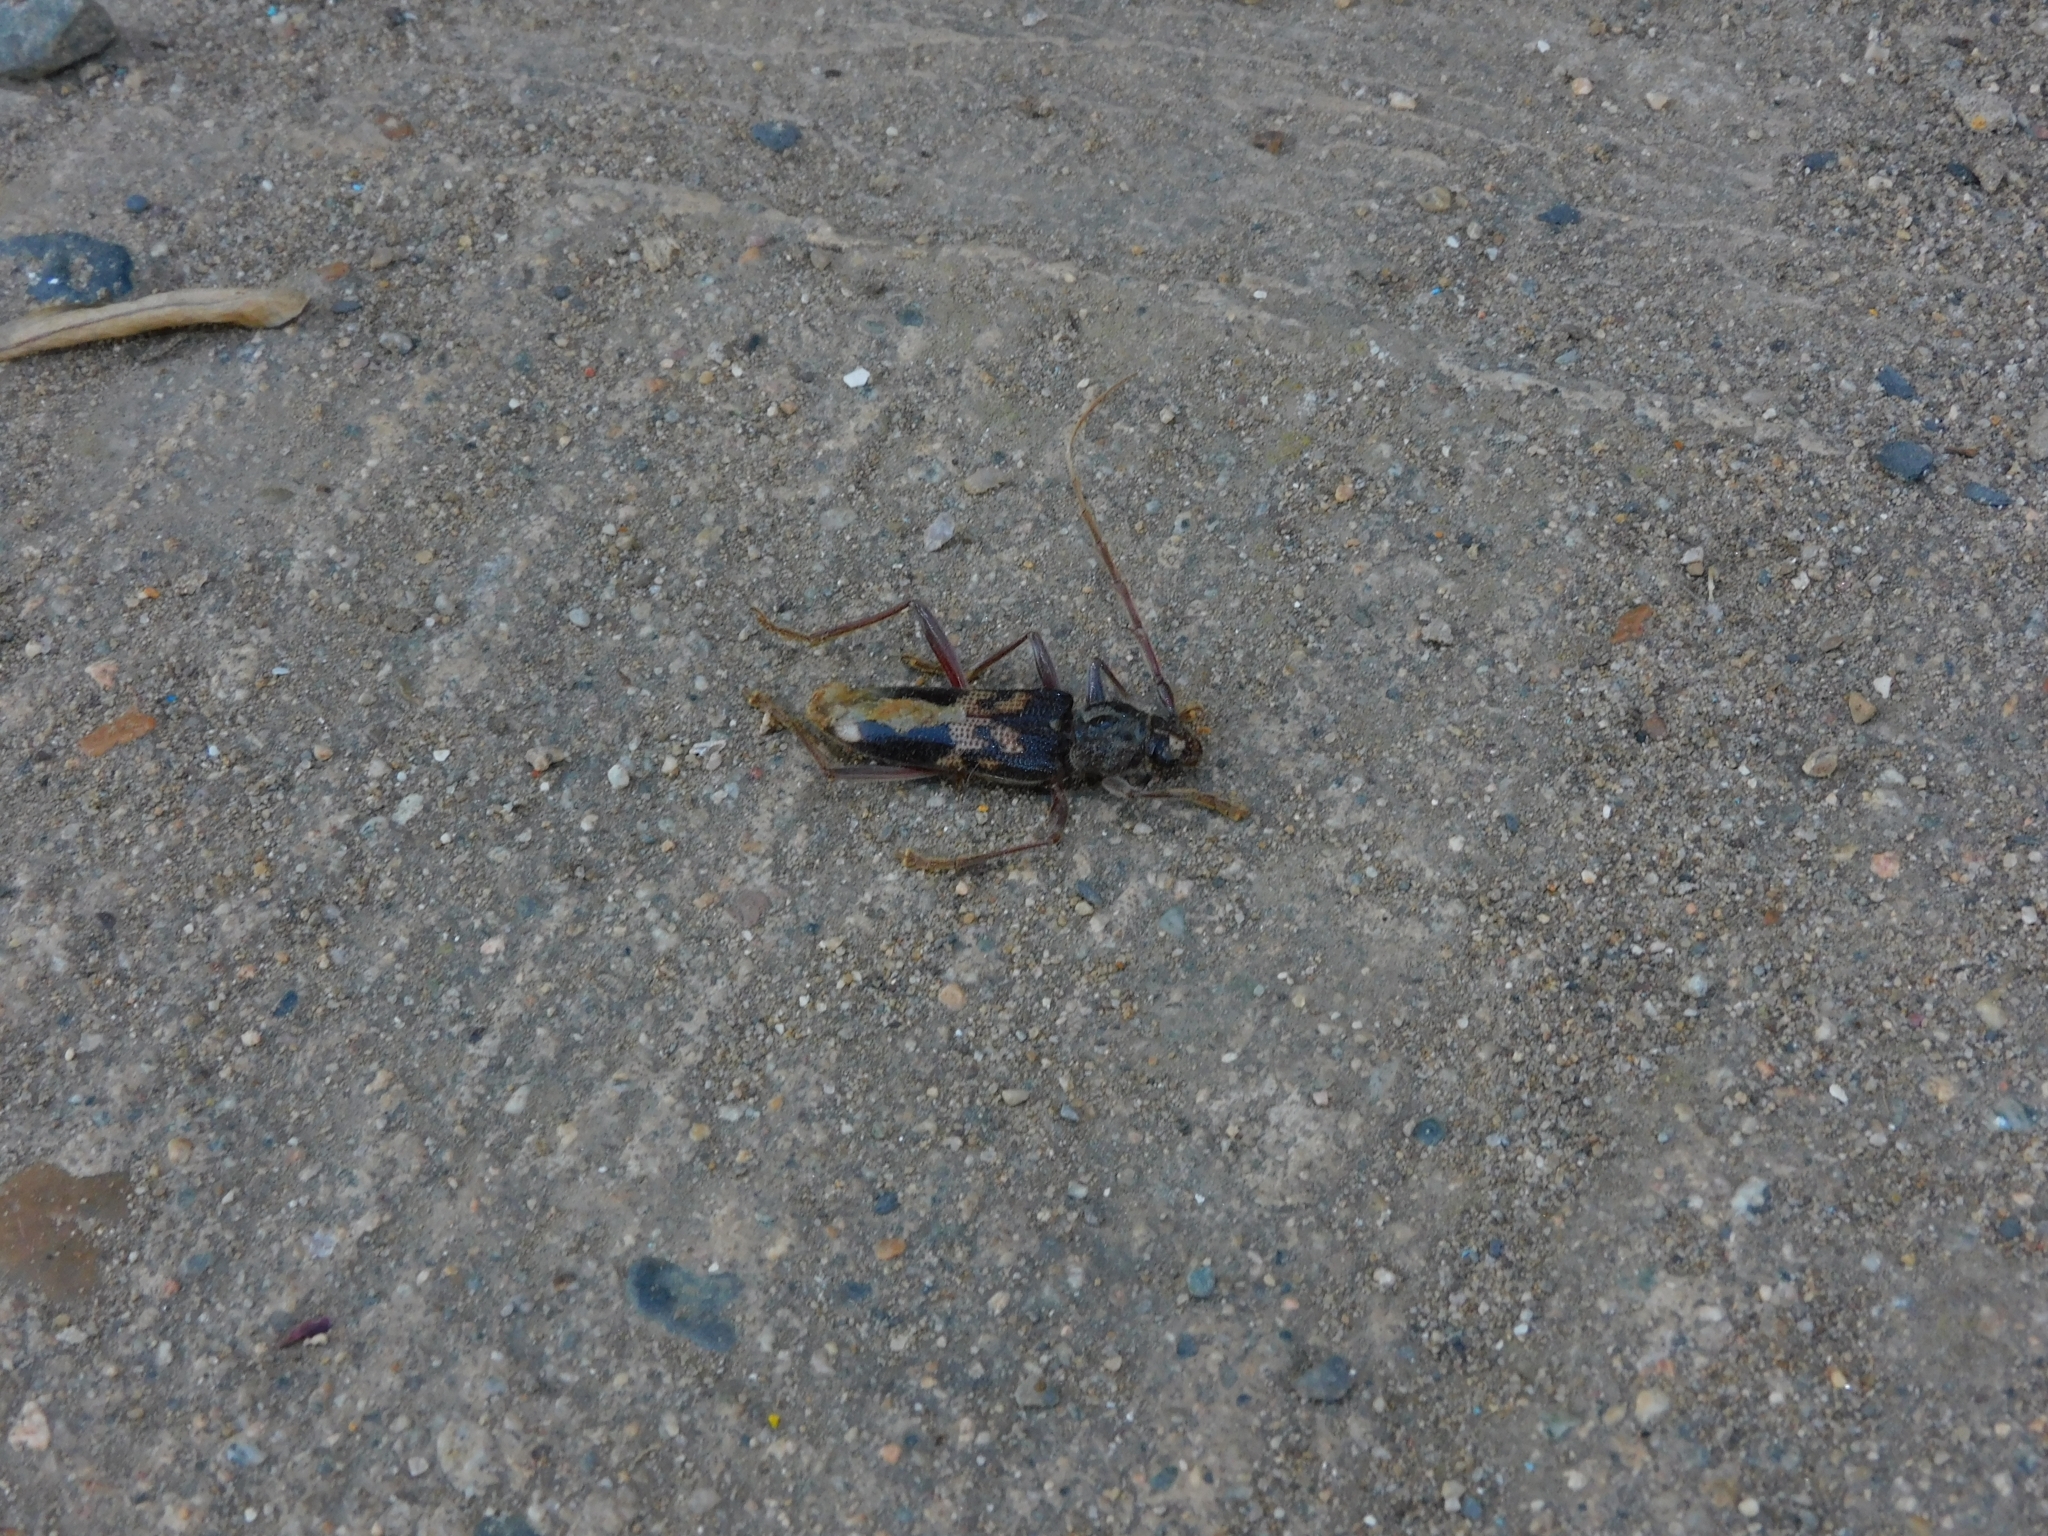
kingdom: Animalia
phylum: Arthropoda
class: Insecta
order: Coleoptera
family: Cerambycidae
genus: Phoracantha
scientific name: Phoracantha semipunctata
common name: Eucalyptus longhorn borer
